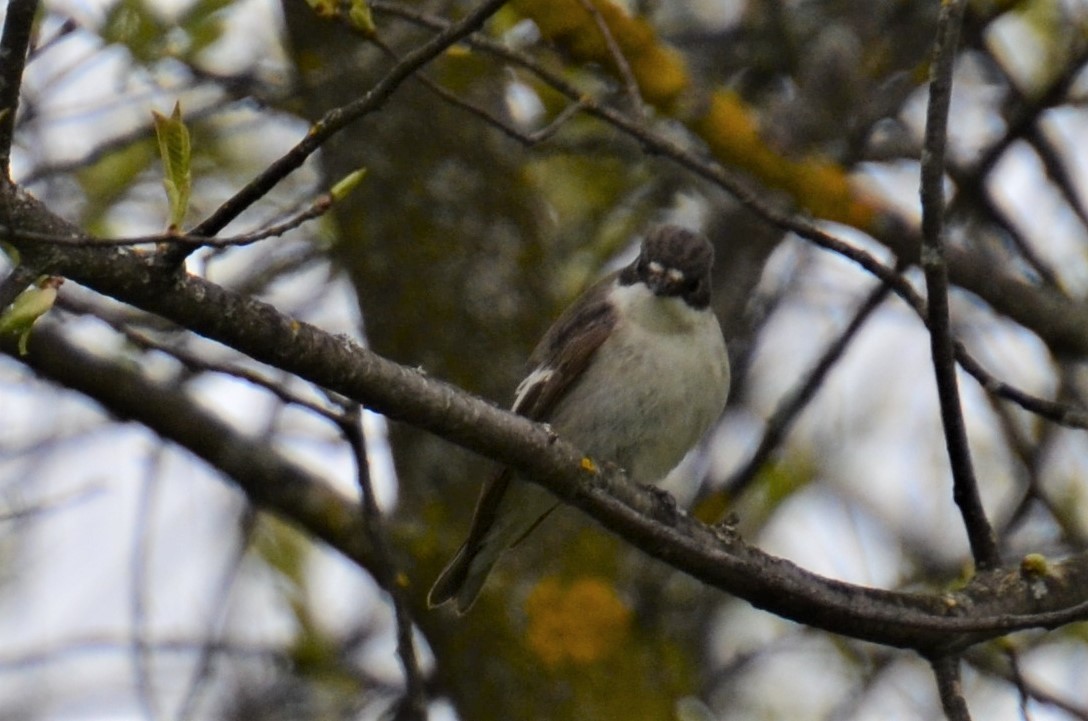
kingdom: Animalia
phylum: Chordata
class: Aves
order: Passeriformes
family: Muscicapidae
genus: Ficedula
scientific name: Ficedula hypoleuca
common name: European pied flycatcher
